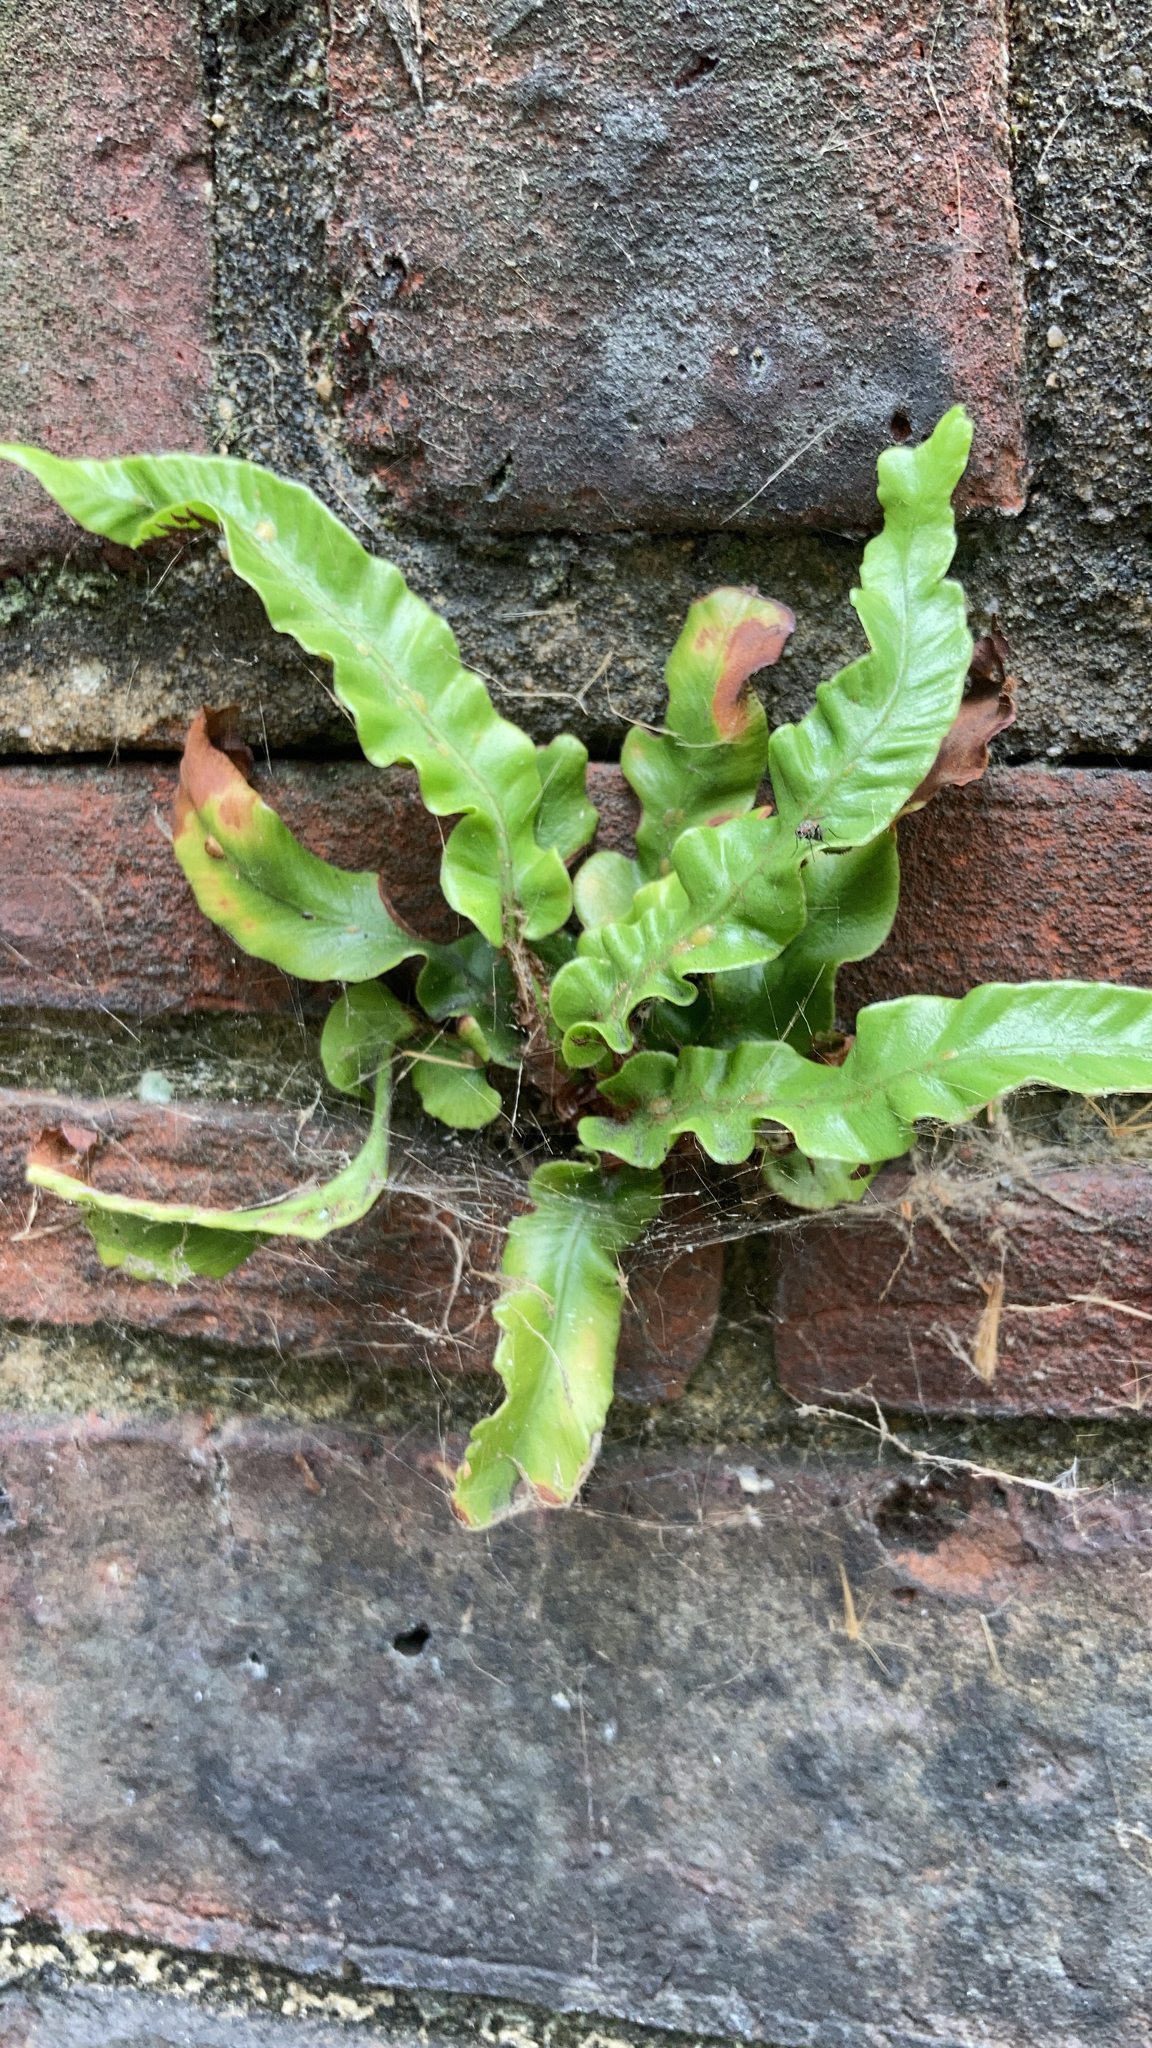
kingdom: Plantae
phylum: Tracheophyta
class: Polypodiopsida
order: Polypodiales
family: Aspleniaceae
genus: Asplenium
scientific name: Asplenium scolopendrium
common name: Hart's-tongue fern
